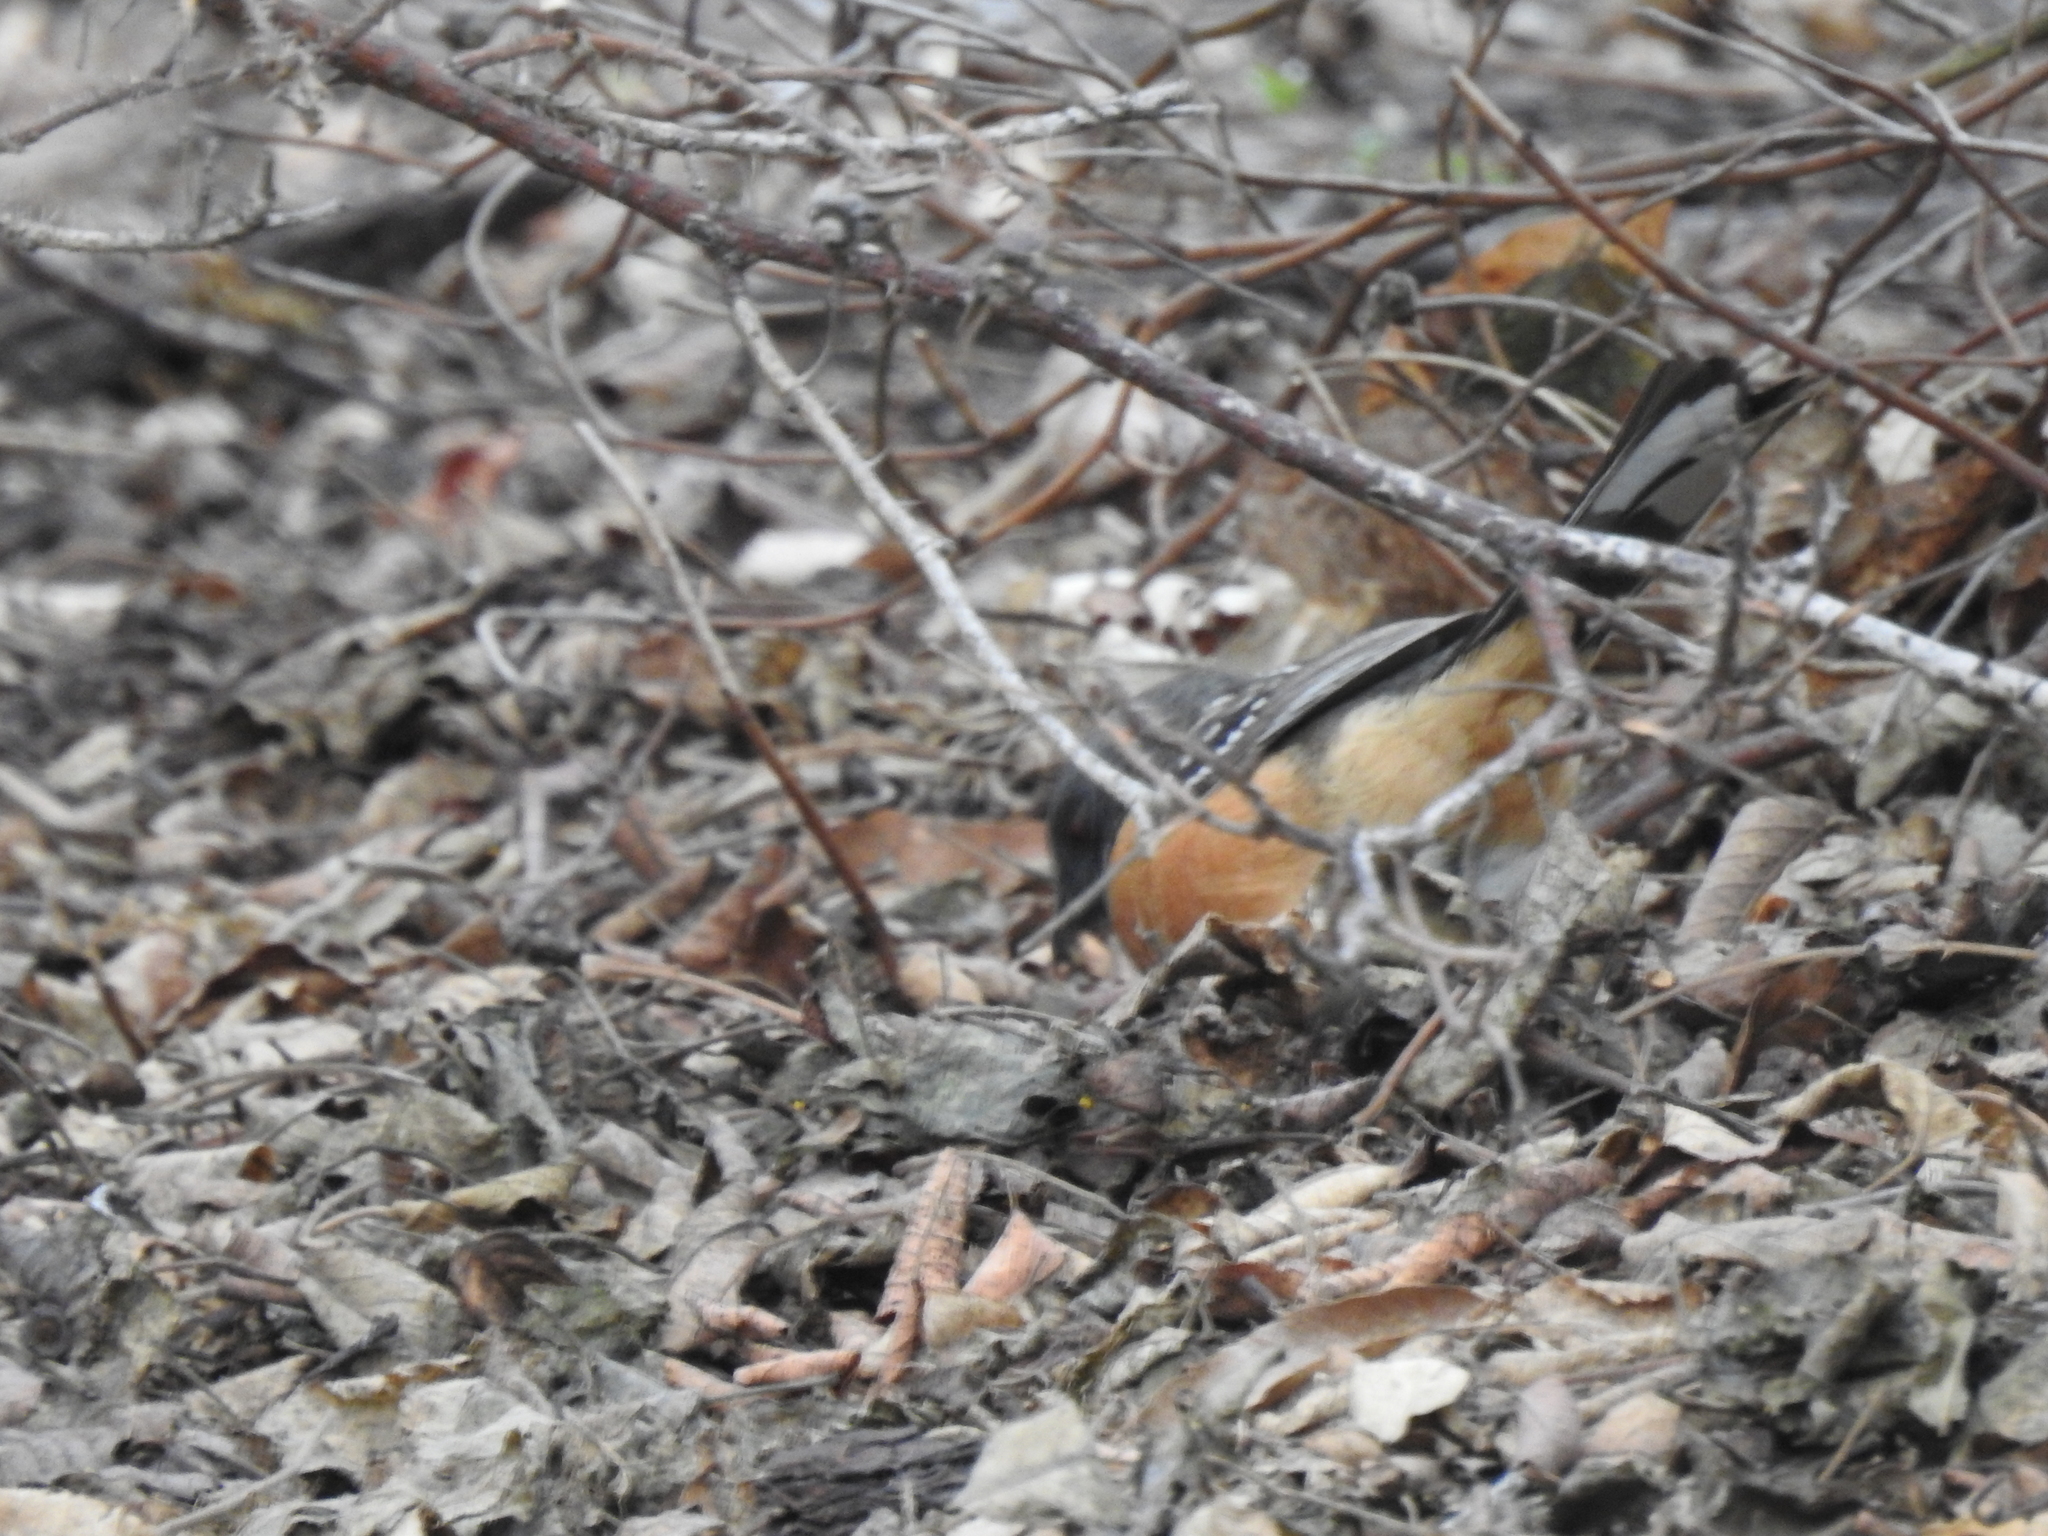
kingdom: Animalia
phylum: Chordata
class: Aves
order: Passeriformes
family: Passerellidae
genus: Pipilo
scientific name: Pipilo maculatus
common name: Spotted towhee
